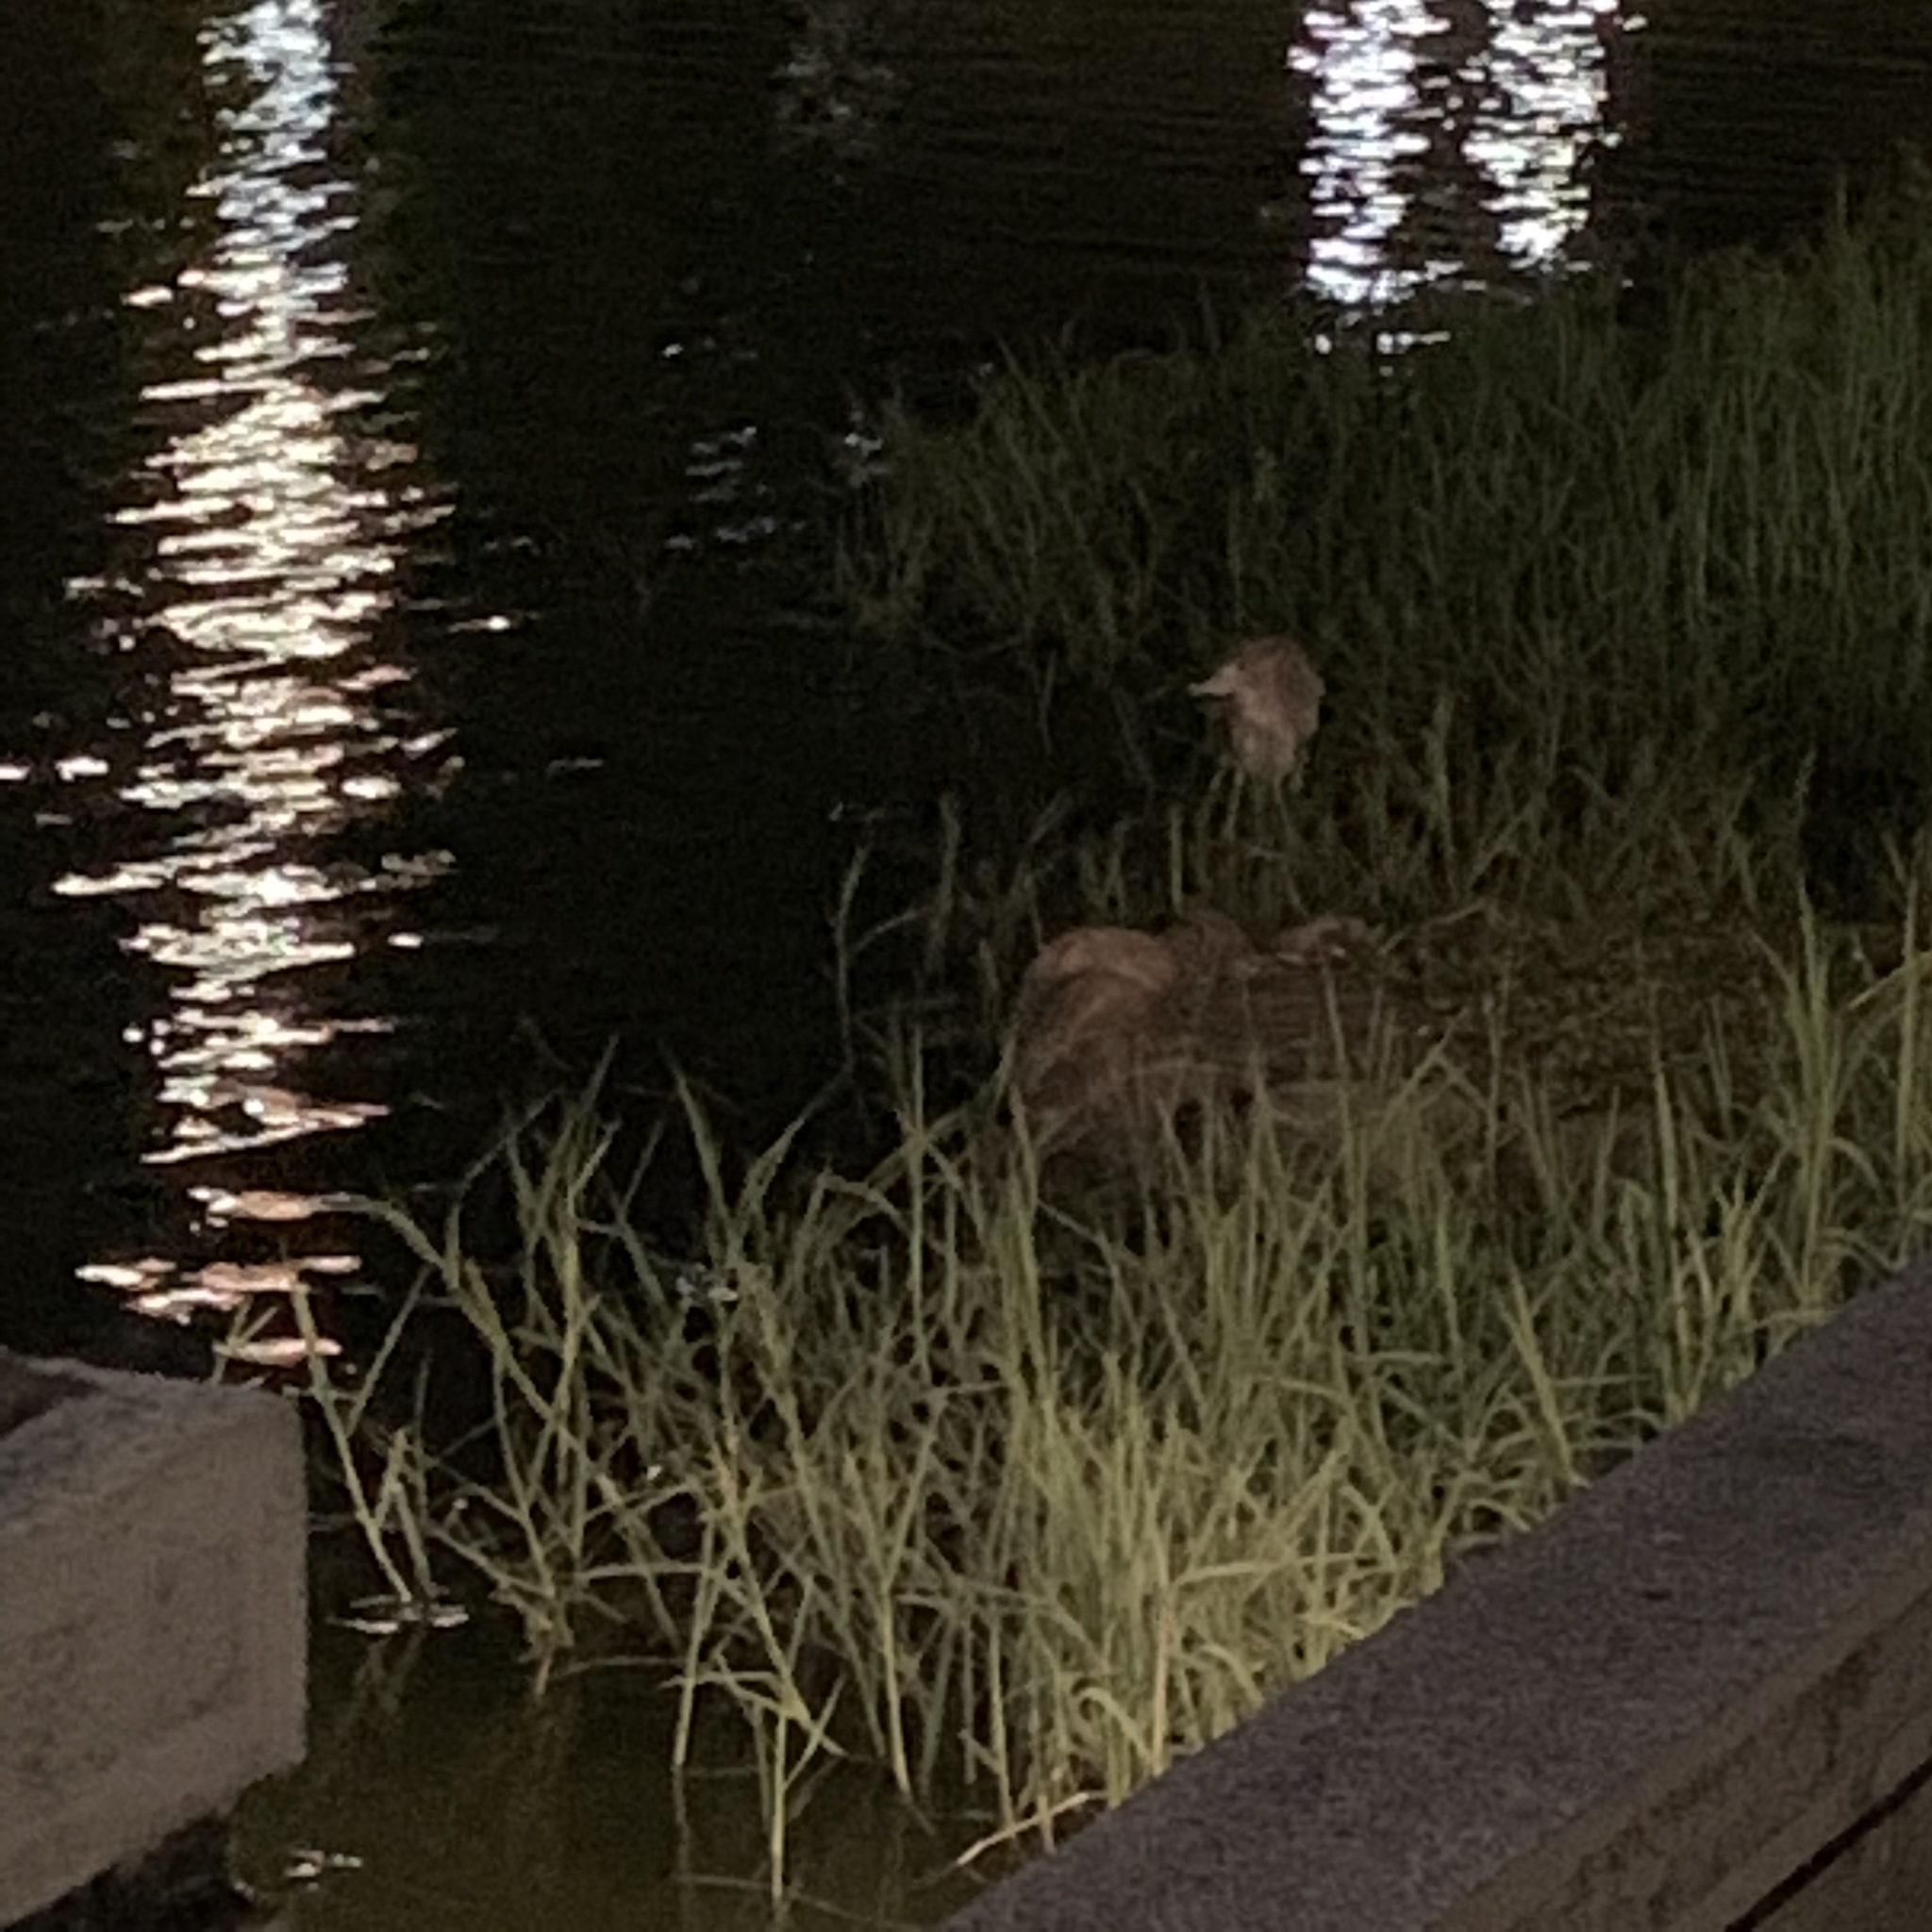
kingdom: Animalia
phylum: Chordata
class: Aves
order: Pelecaniformes
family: Ardeidae
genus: Nycticorax
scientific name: Nycticorax nycticorax
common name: Black-crowned night heron
